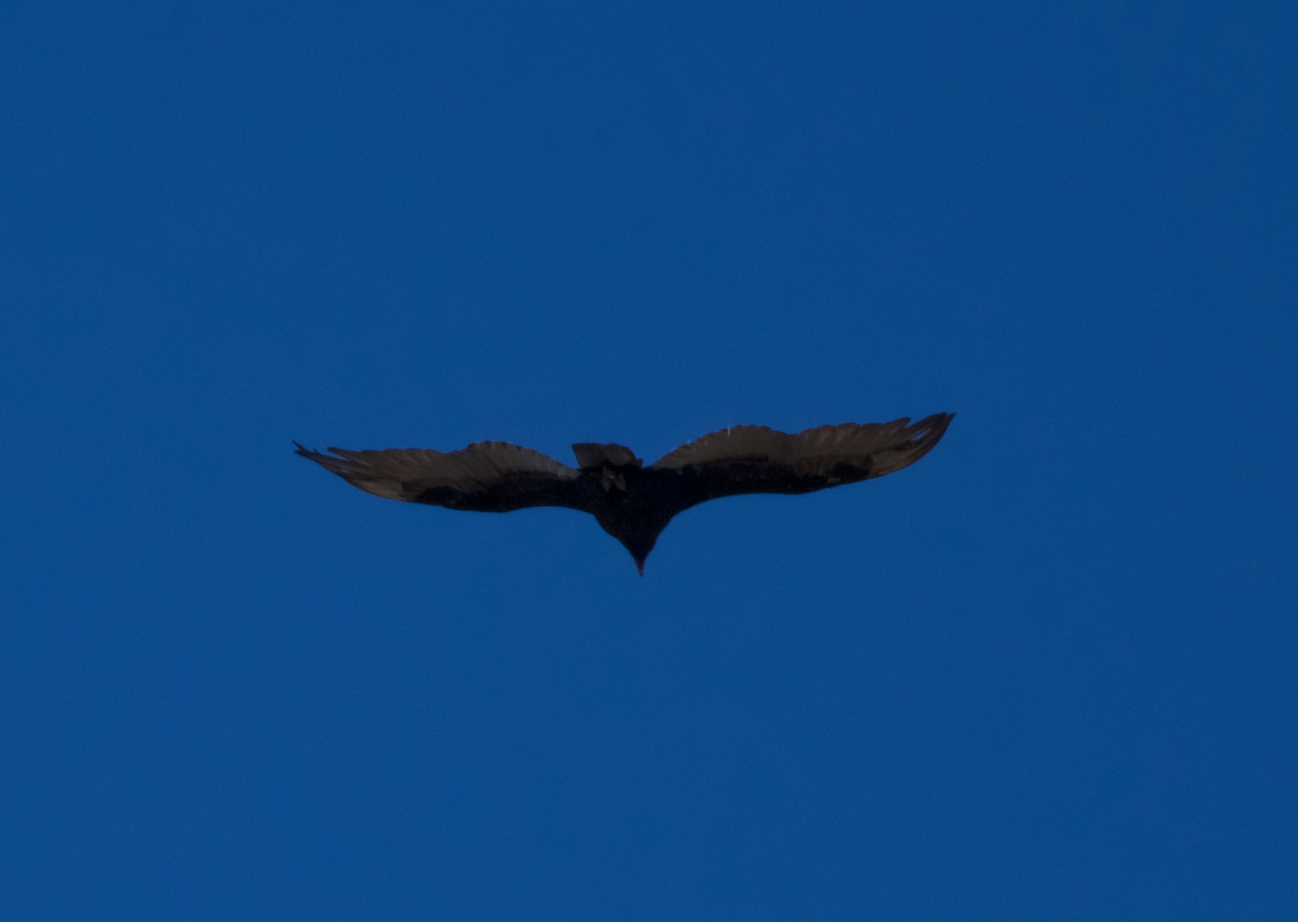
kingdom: Animalia
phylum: Chordata
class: Aves
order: Accipitriformes
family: Cathartidae
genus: Cathartes
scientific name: Cathartes aura
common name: Turkey vulture
